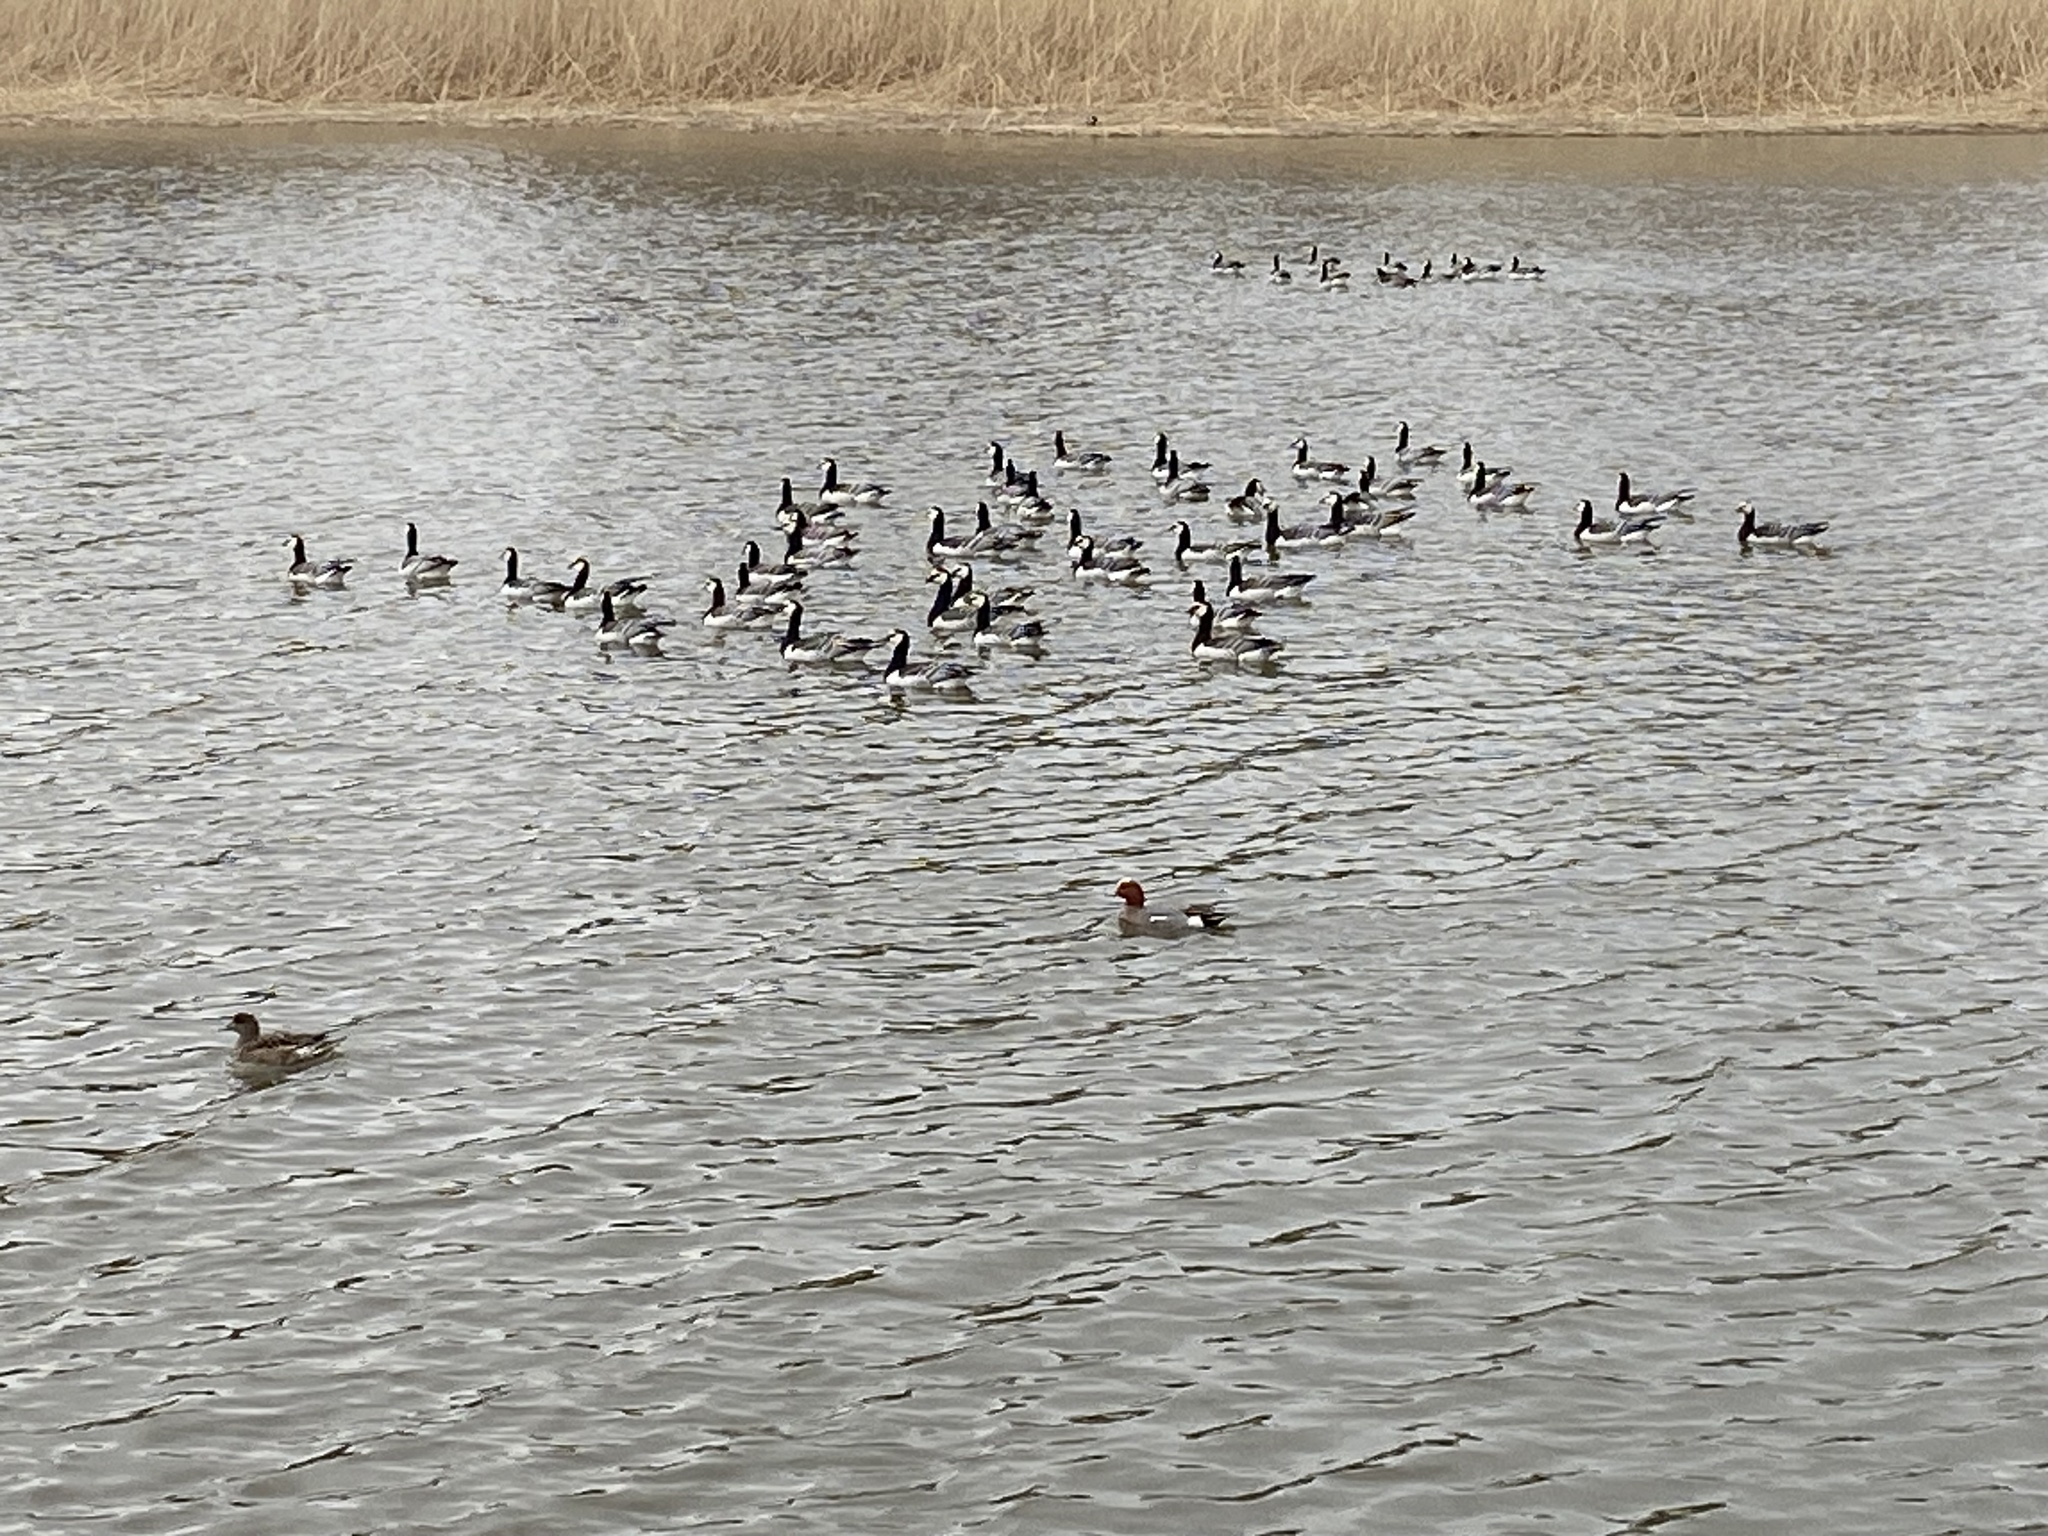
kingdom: Animalia
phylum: Chordata
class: Aves
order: Anseriformes
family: Anatidae
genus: Branta
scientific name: Branta leucopsis
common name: Barnacle goose
